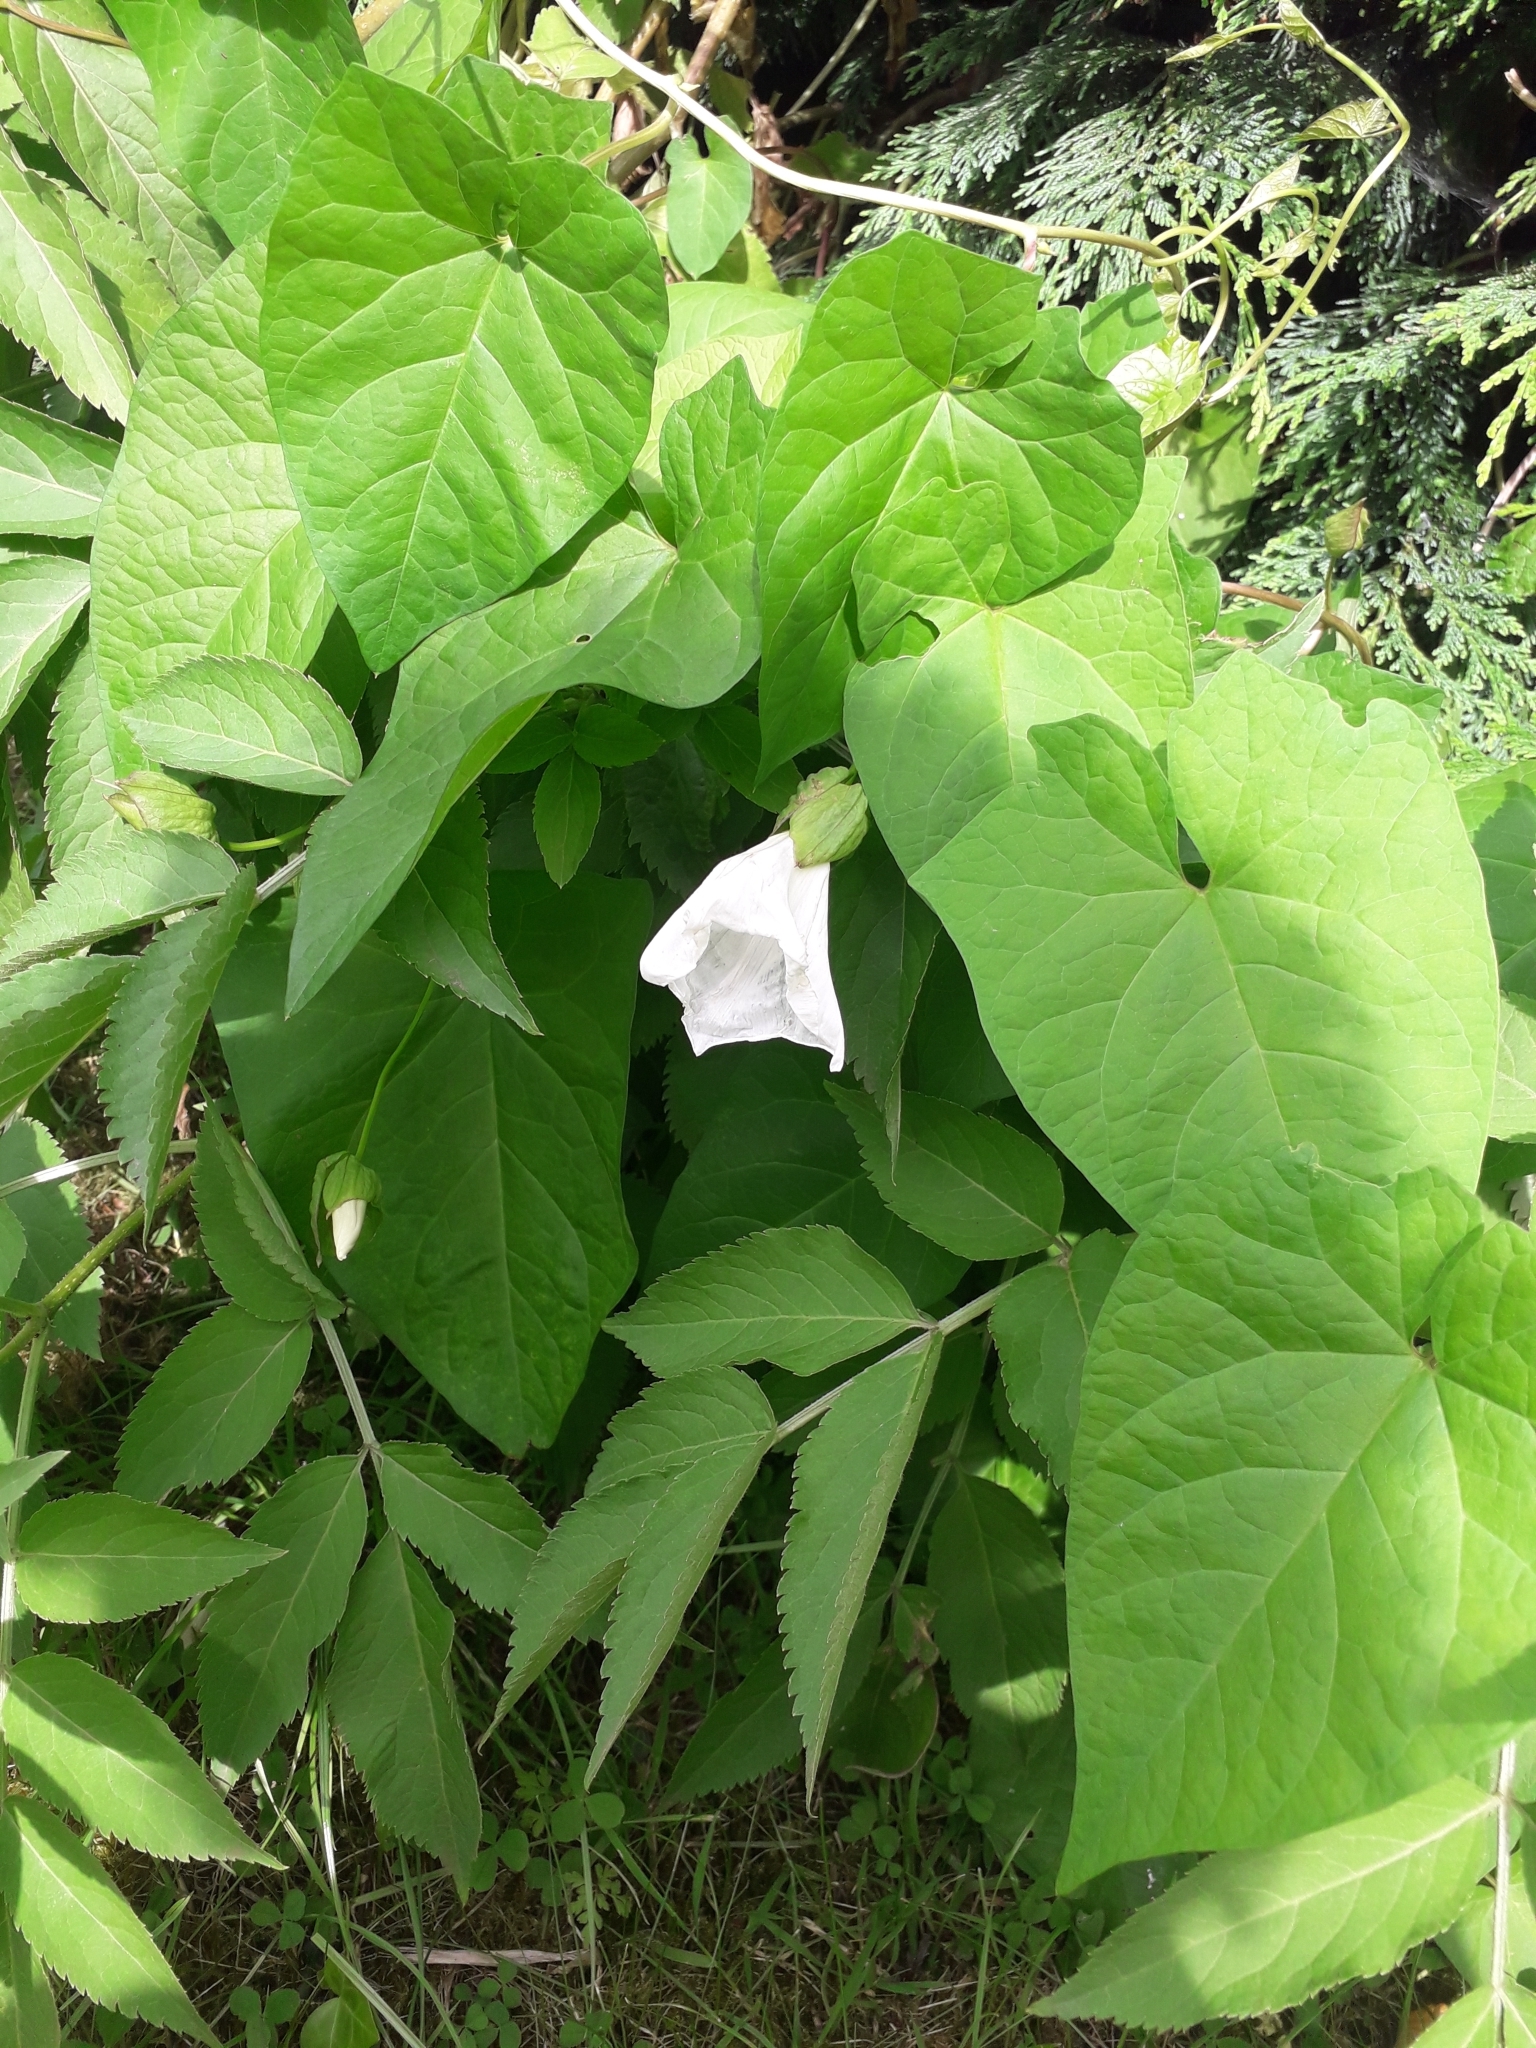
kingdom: Plantae
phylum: Tracheophyta
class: Magnoliopsida
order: Solanales
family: Convolvulaceae
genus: Calystegia
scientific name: Calystegia silvatica
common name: Large bindweed
